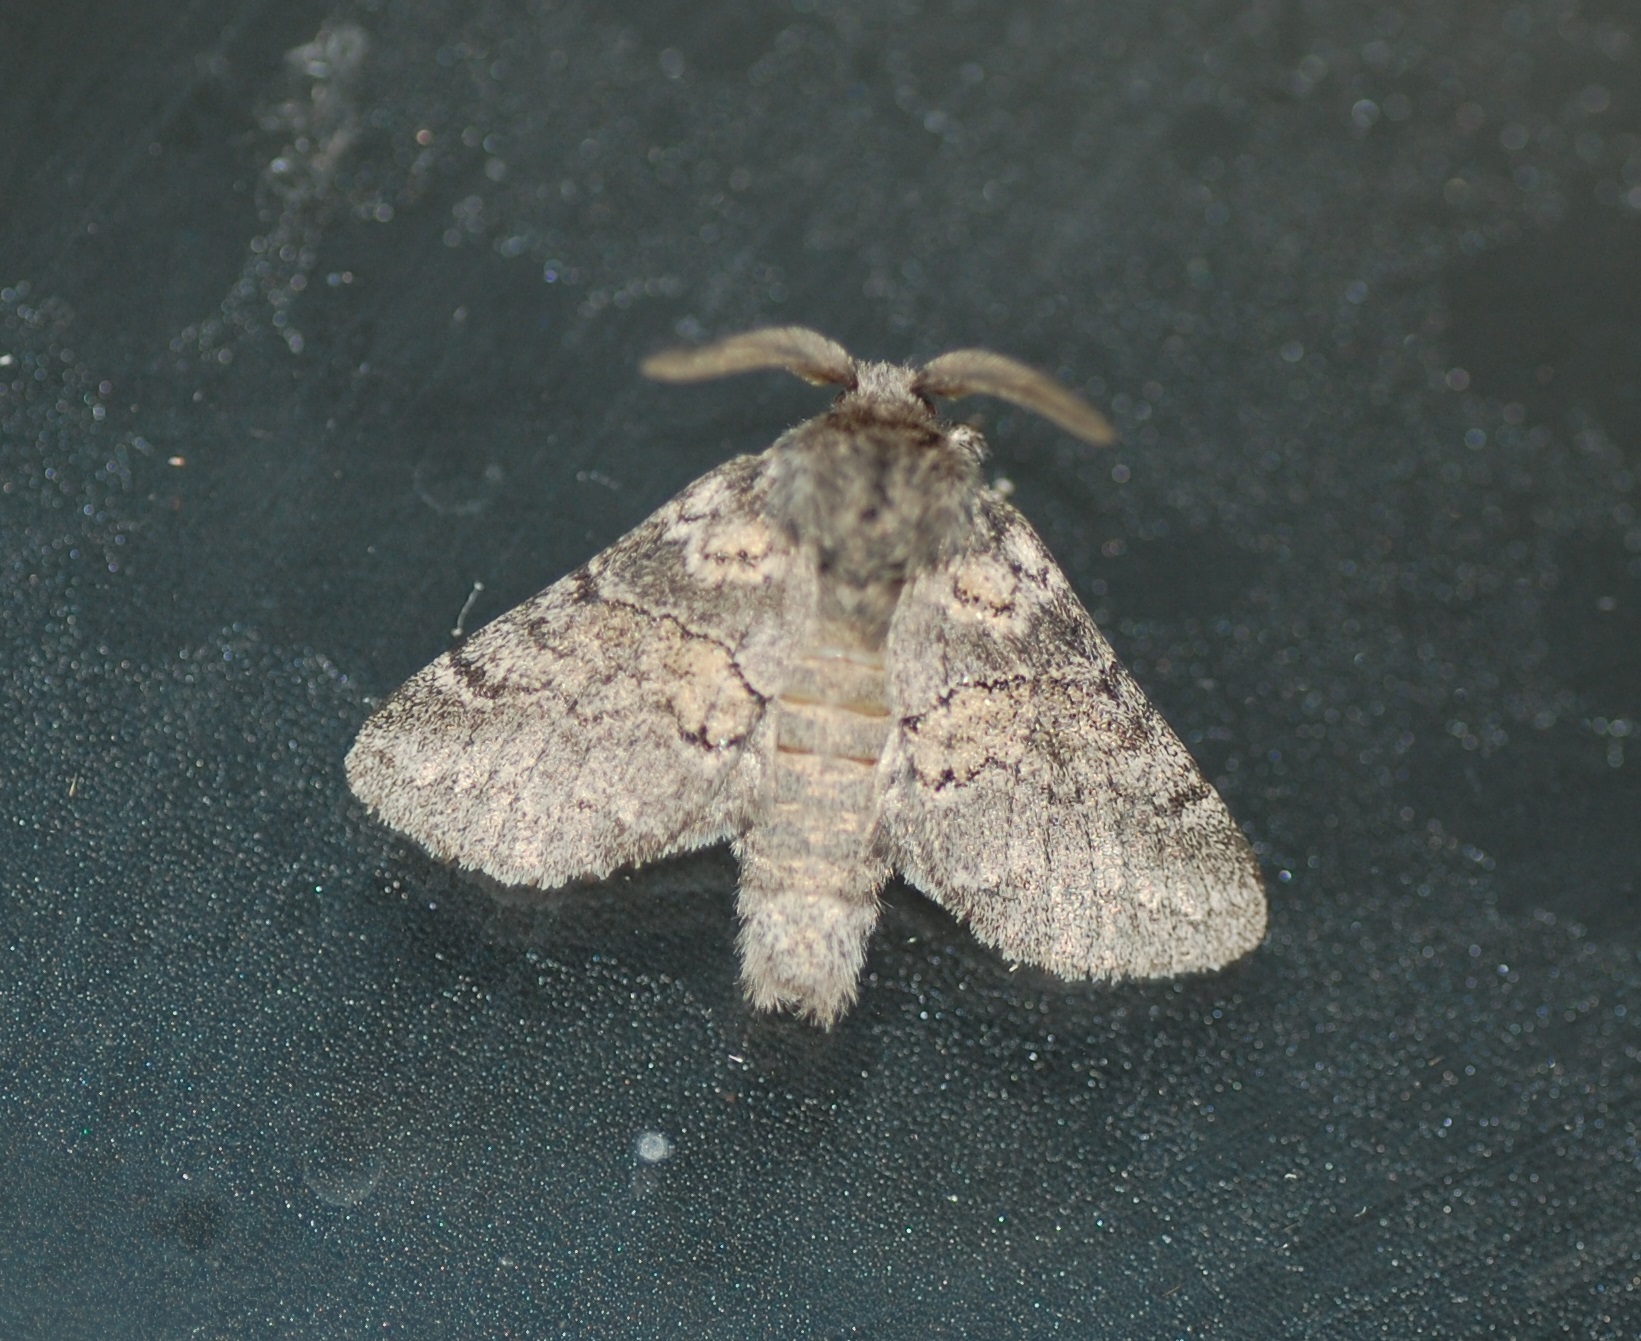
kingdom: Animalia
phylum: Arthropoda
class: Insecta
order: Lepidoptera
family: Notodontidae
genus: Gluphisia
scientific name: Gluphisia septentrionis
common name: Common gluphisia
